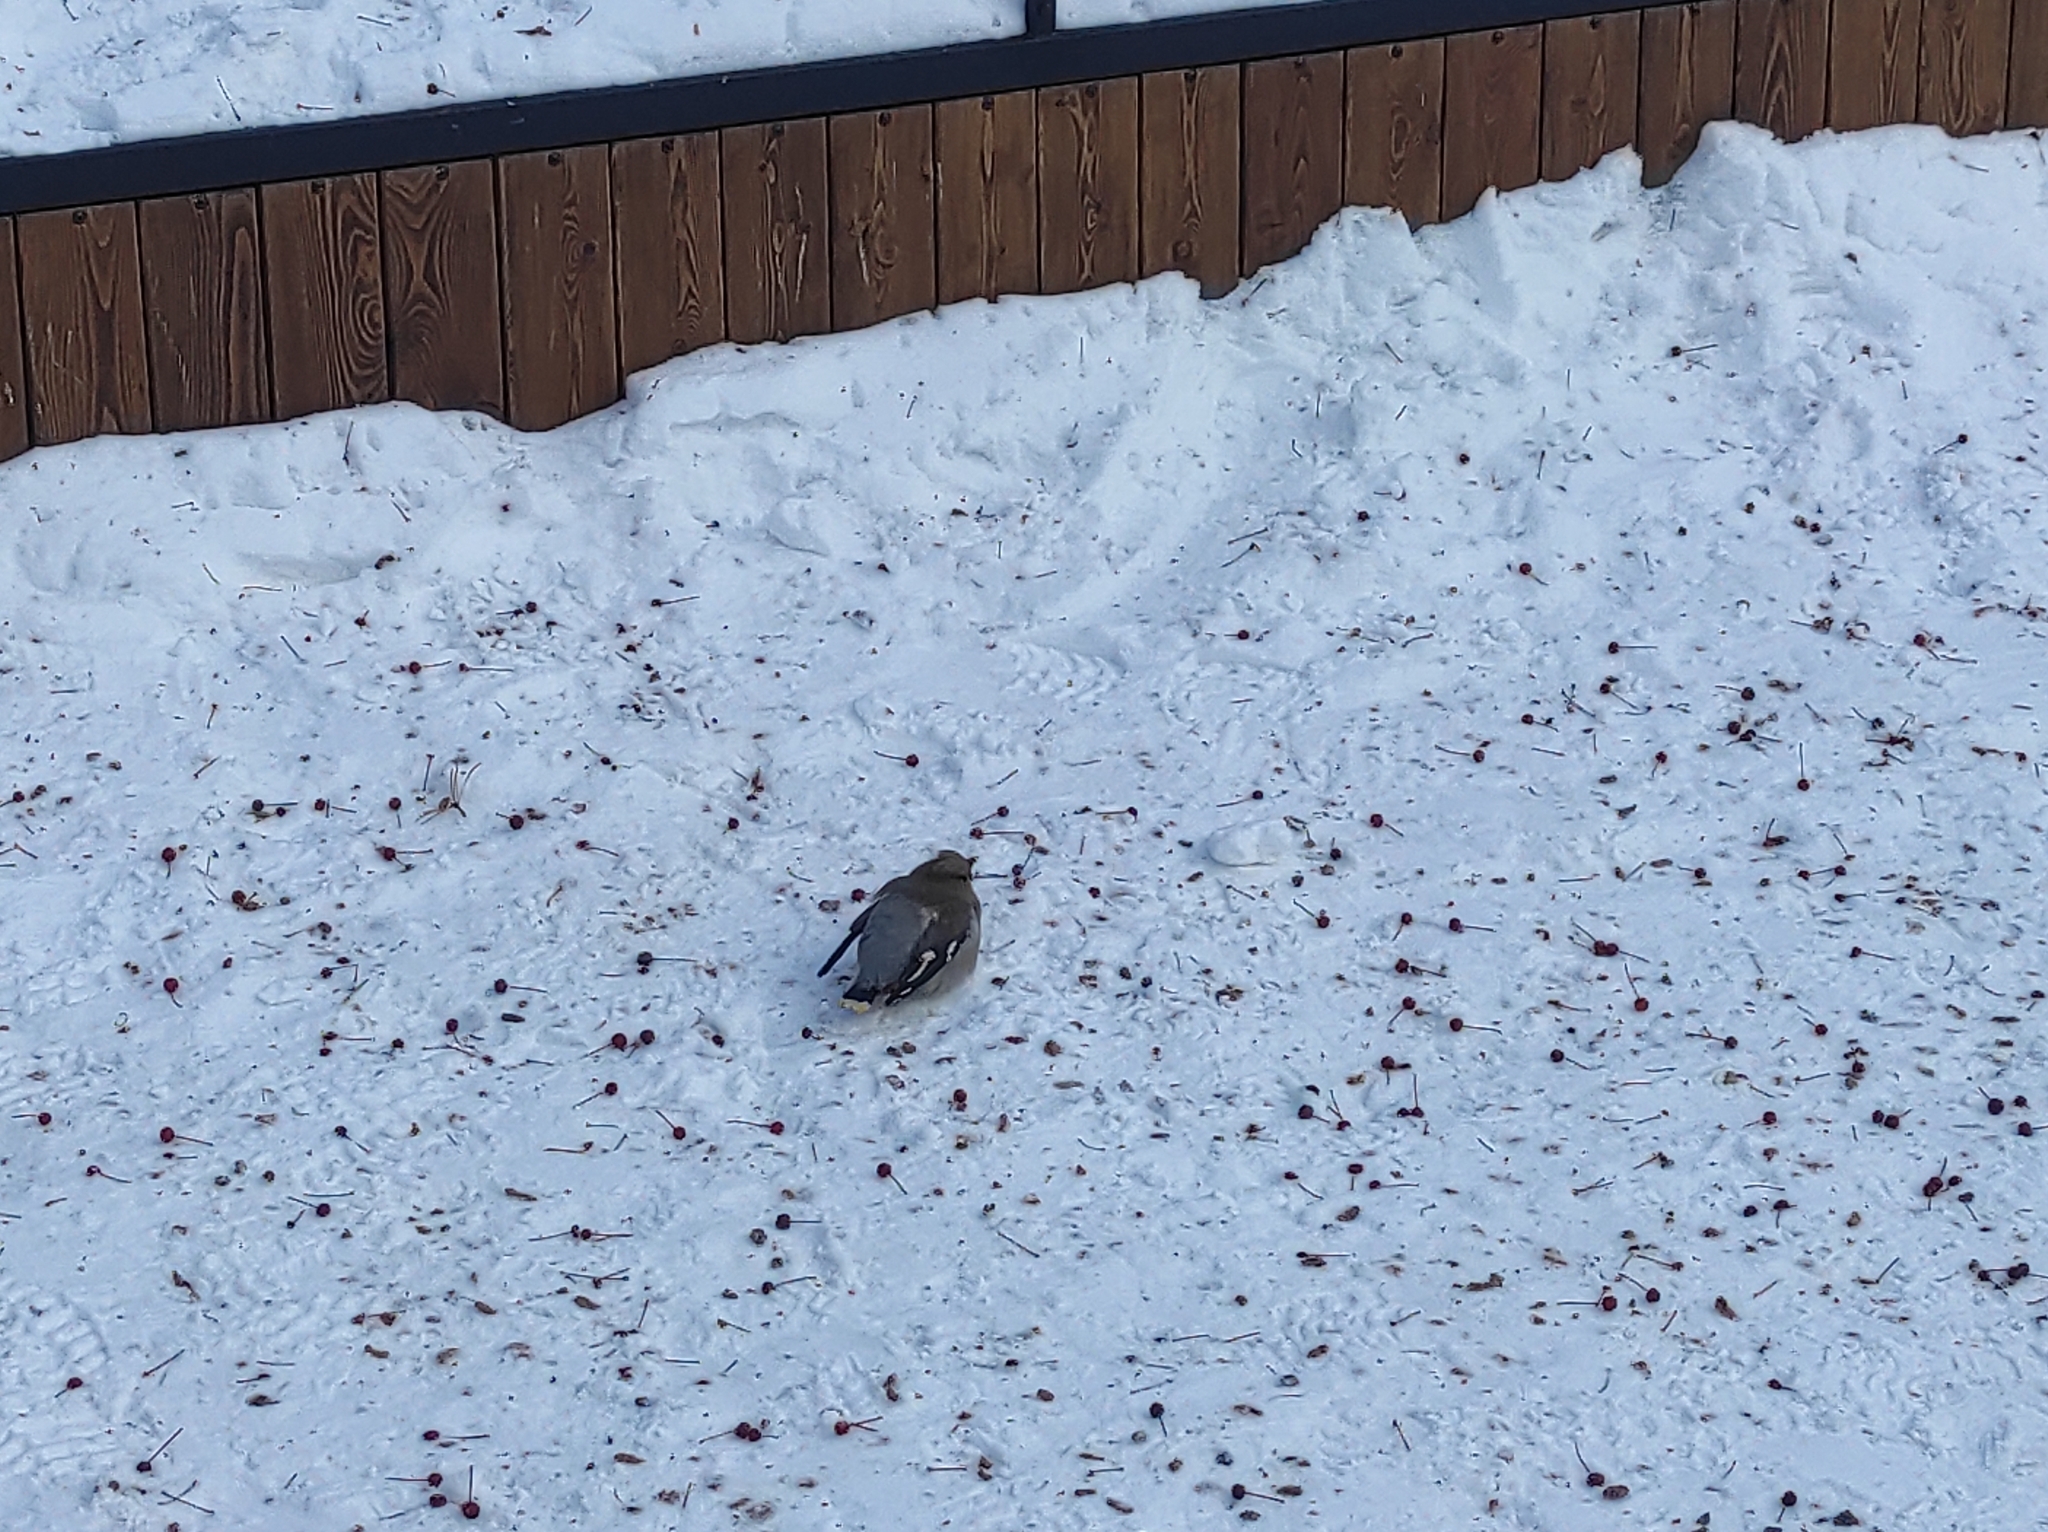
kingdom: Animalia
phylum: Chordata
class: Aves
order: Passeriformes
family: Bombycillidae
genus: Bombycilla
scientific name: Bombycilla garrulus
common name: Bohemian waxwing
